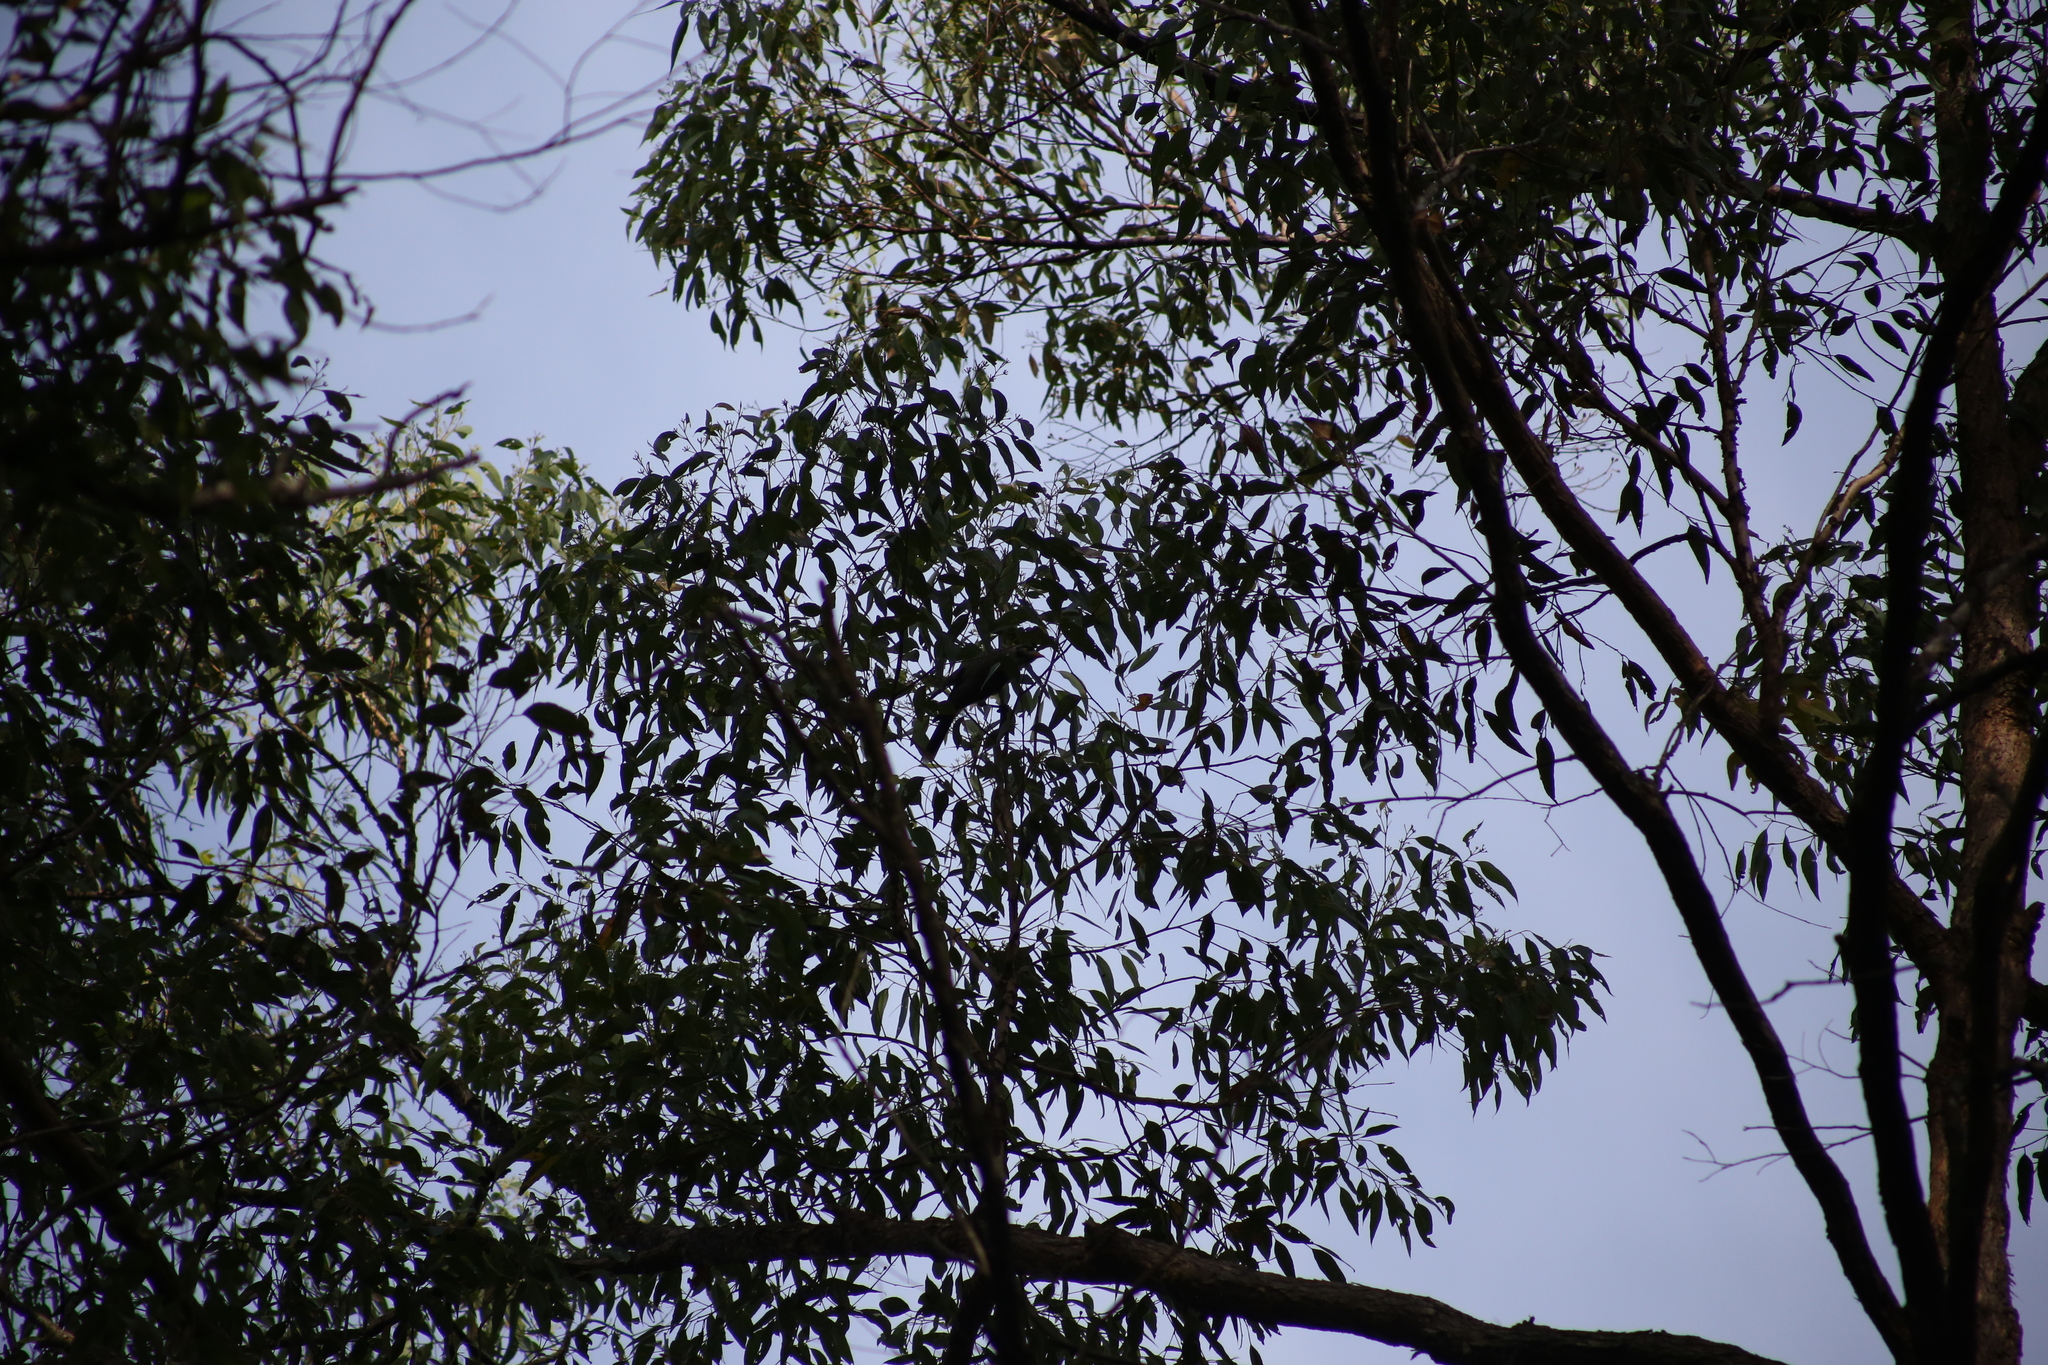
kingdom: Animalia
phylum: Chordata
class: Aves
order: Passeriformes
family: Meliphagidae
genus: Manorina
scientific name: Manorina melanocephala
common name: Noisy miner
